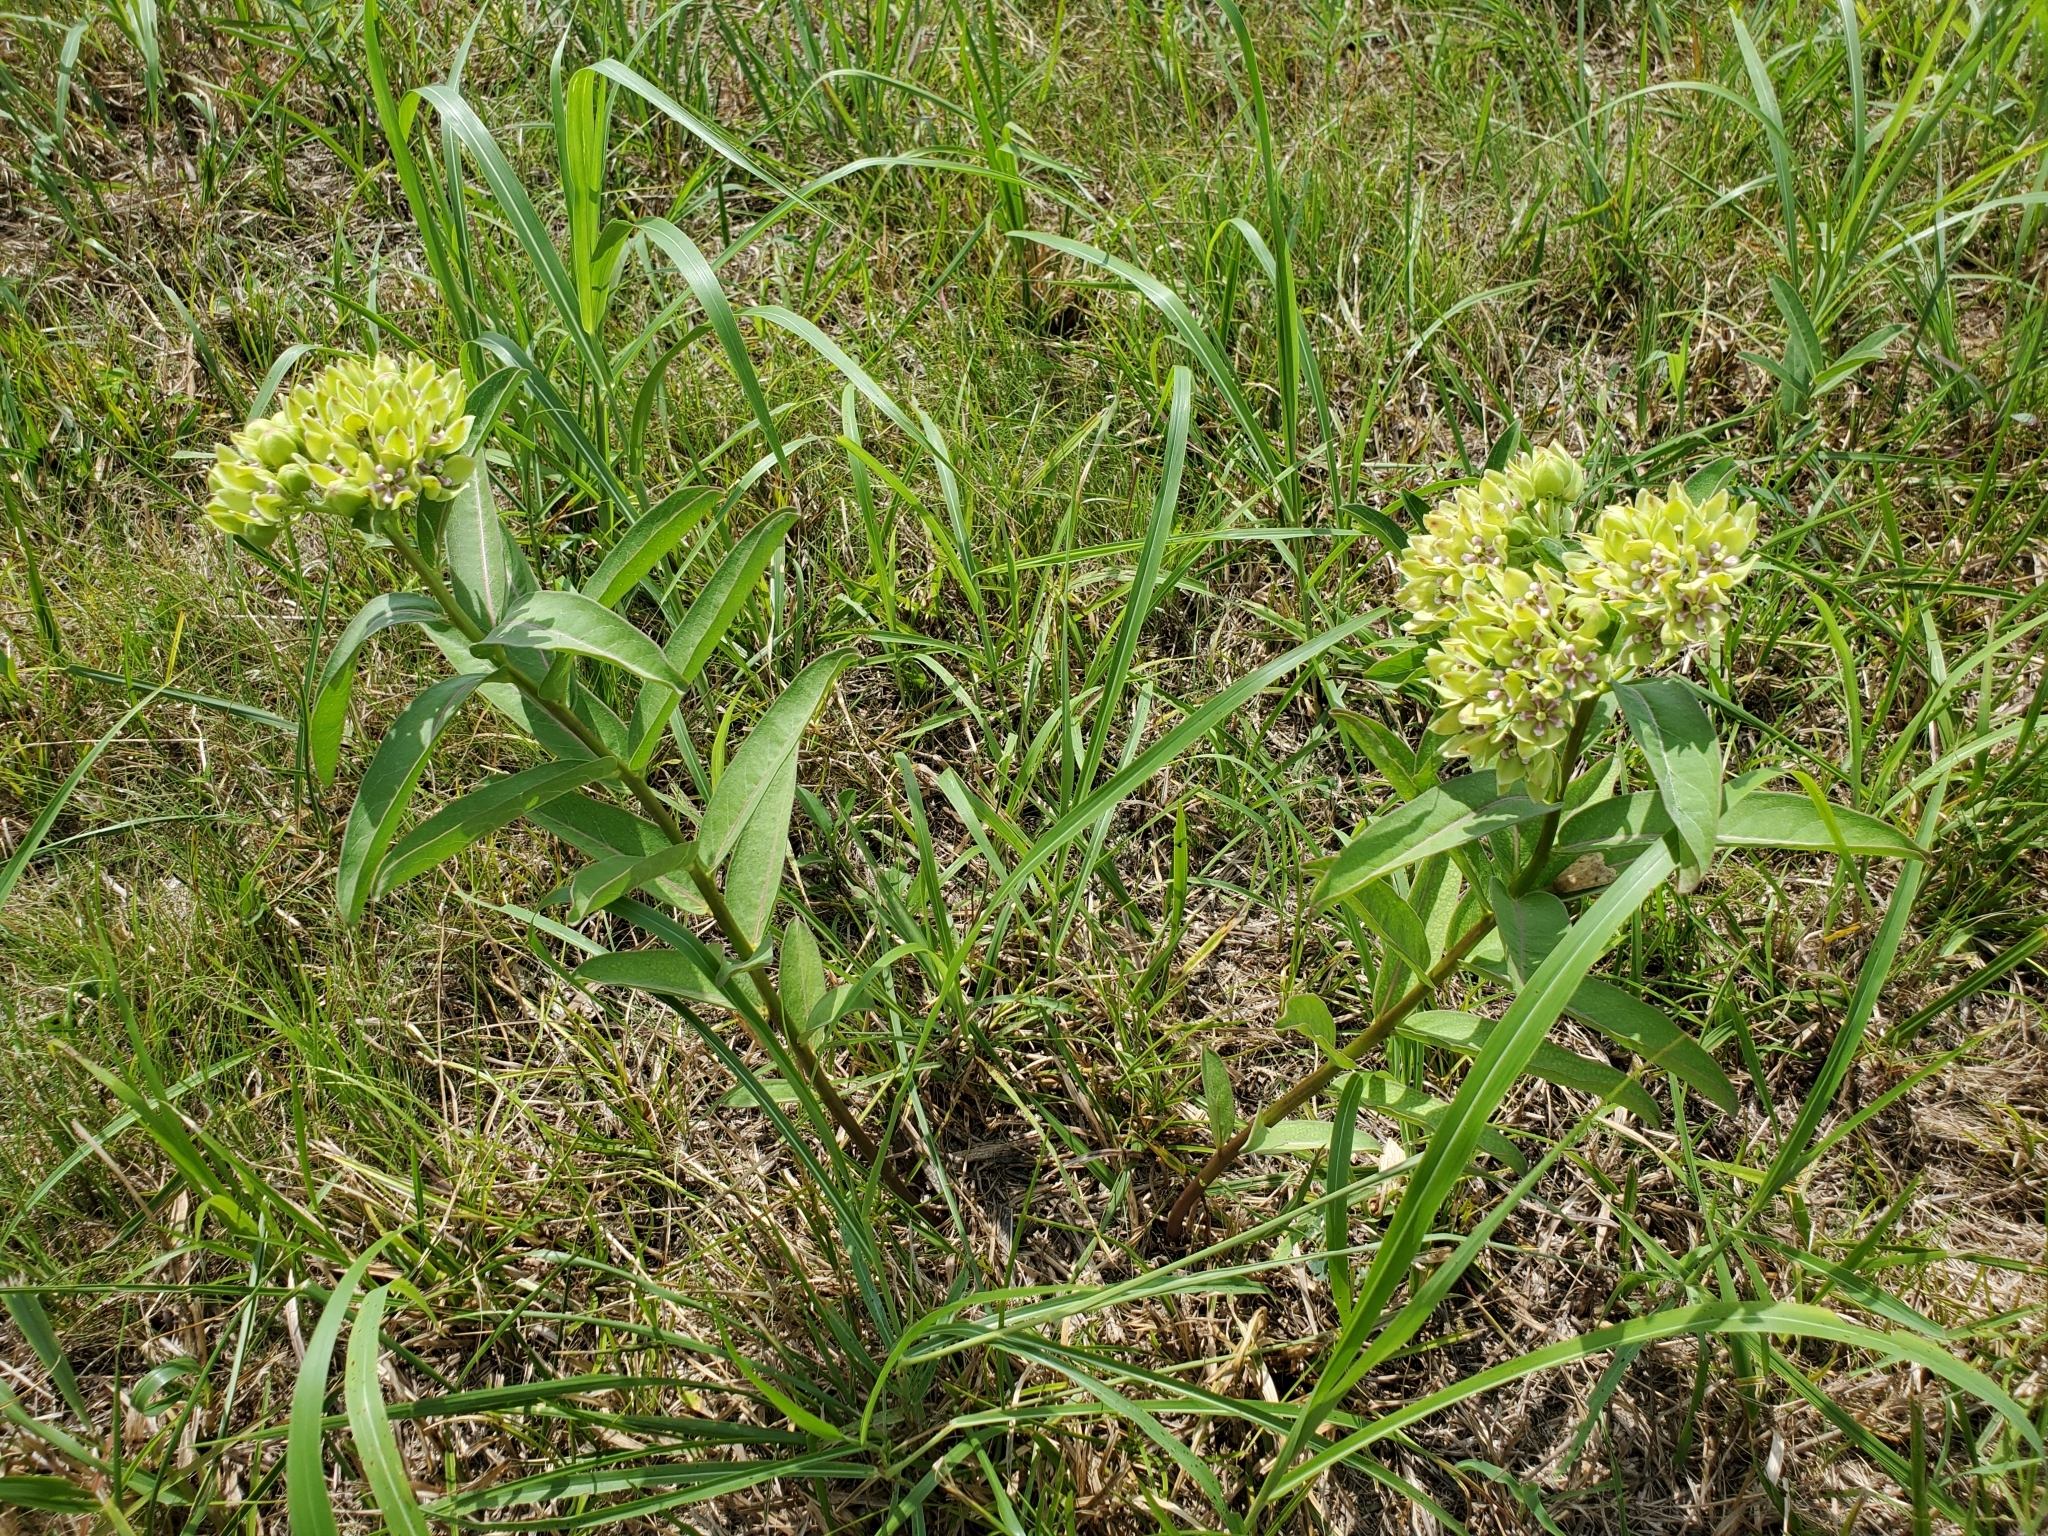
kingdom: Plantae
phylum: Tracheophyta
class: Magnoliopsida
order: Gentianales
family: Apocynaceae
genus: Asclepias
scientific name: Asclepias viridis
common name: Antelope-horns
